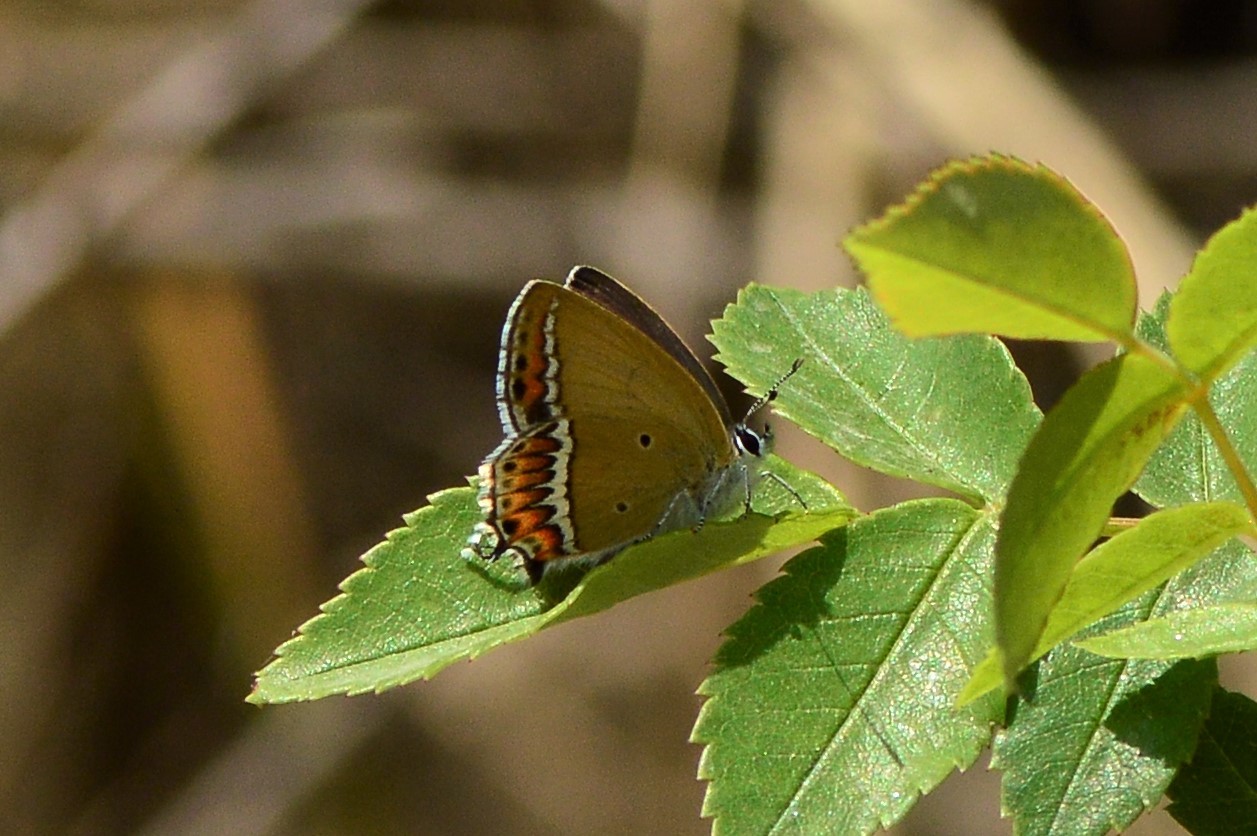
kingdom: Animalia
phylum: Arthropoda
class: Insecta
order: Lepidoptera
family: Lycaenidae
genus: Heliophorus
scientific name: Heliophorus sena
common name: Sorrel sapphire
